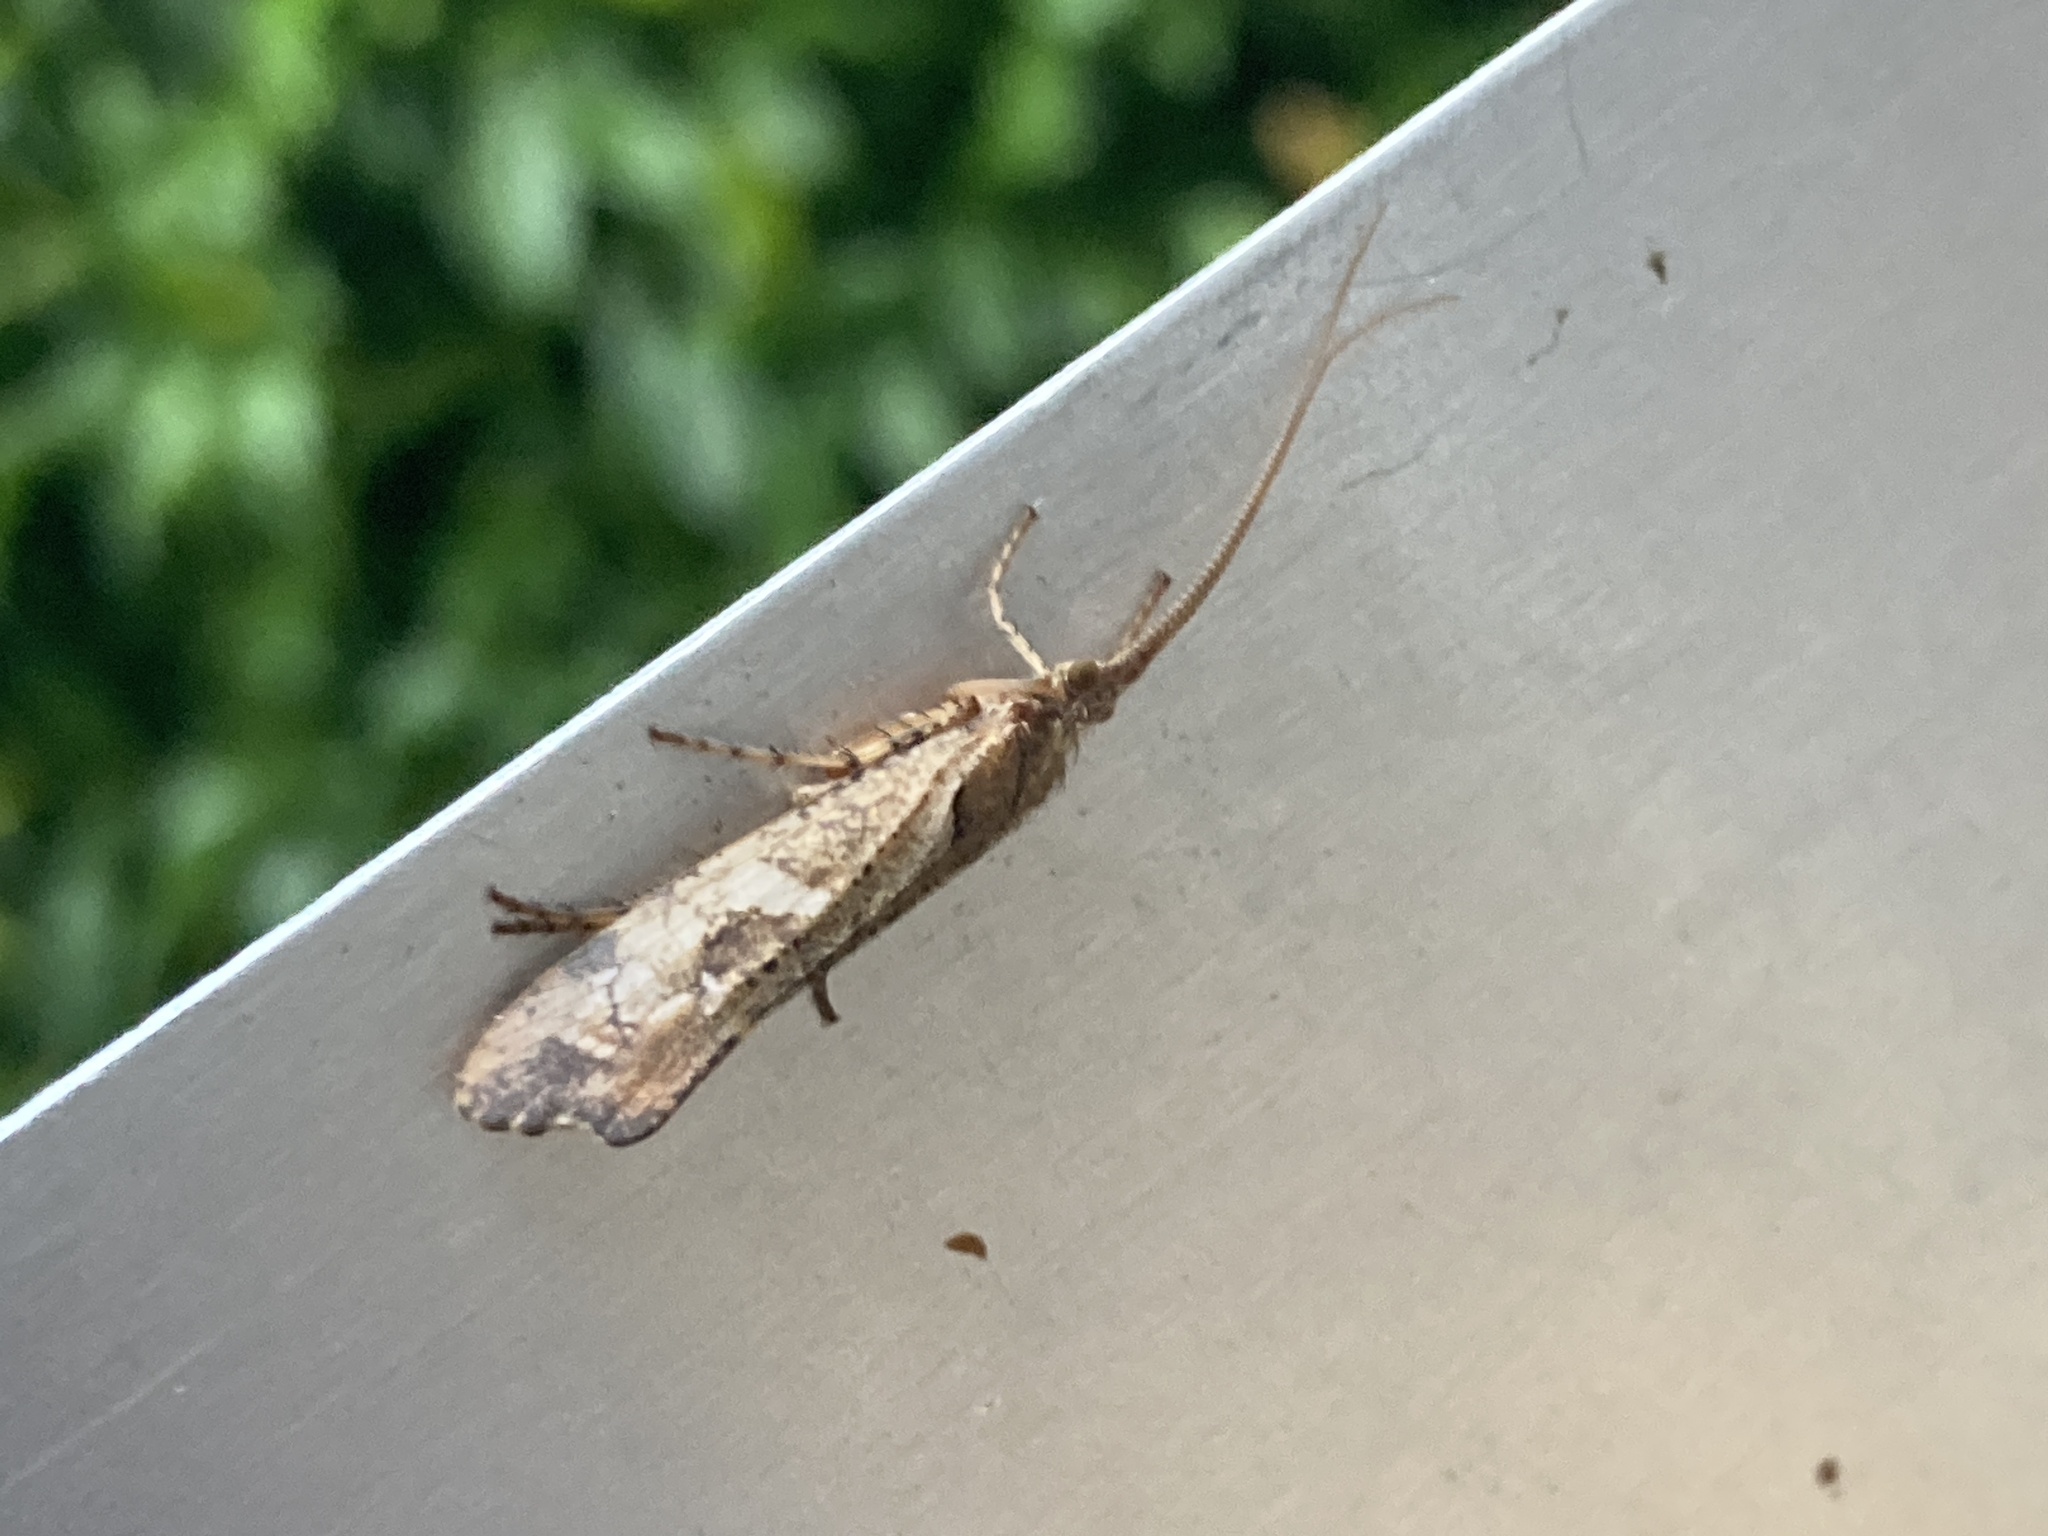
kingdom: Animalia
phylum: Arthropoda
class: Insecta
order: Trichoptera
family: Limnephilidae
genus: Glyphotaelius
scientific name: Glyphotaelius pellucidus
